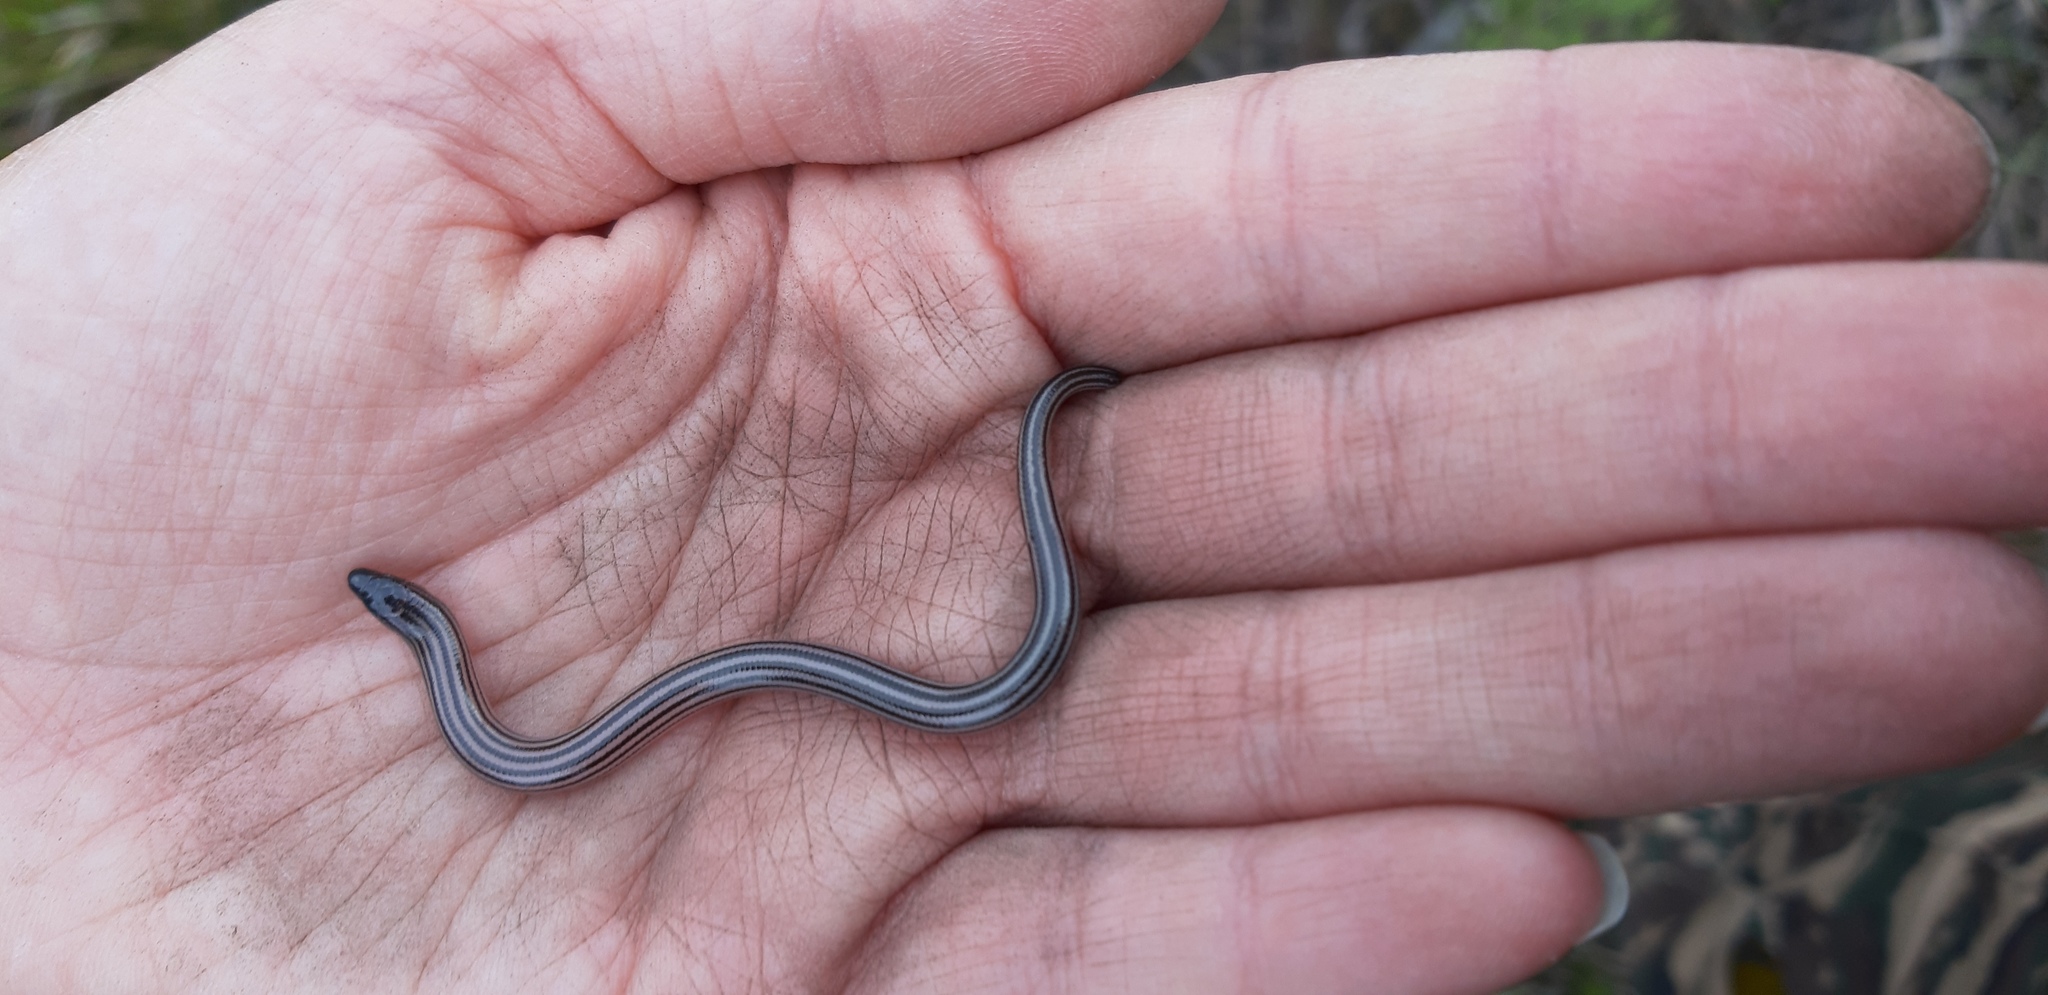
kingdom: Animalia
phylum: Chordata
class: Squamata
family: Scincidae
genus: Acontias
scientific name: Acontias orientalis
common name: Eastern cape legless skink
